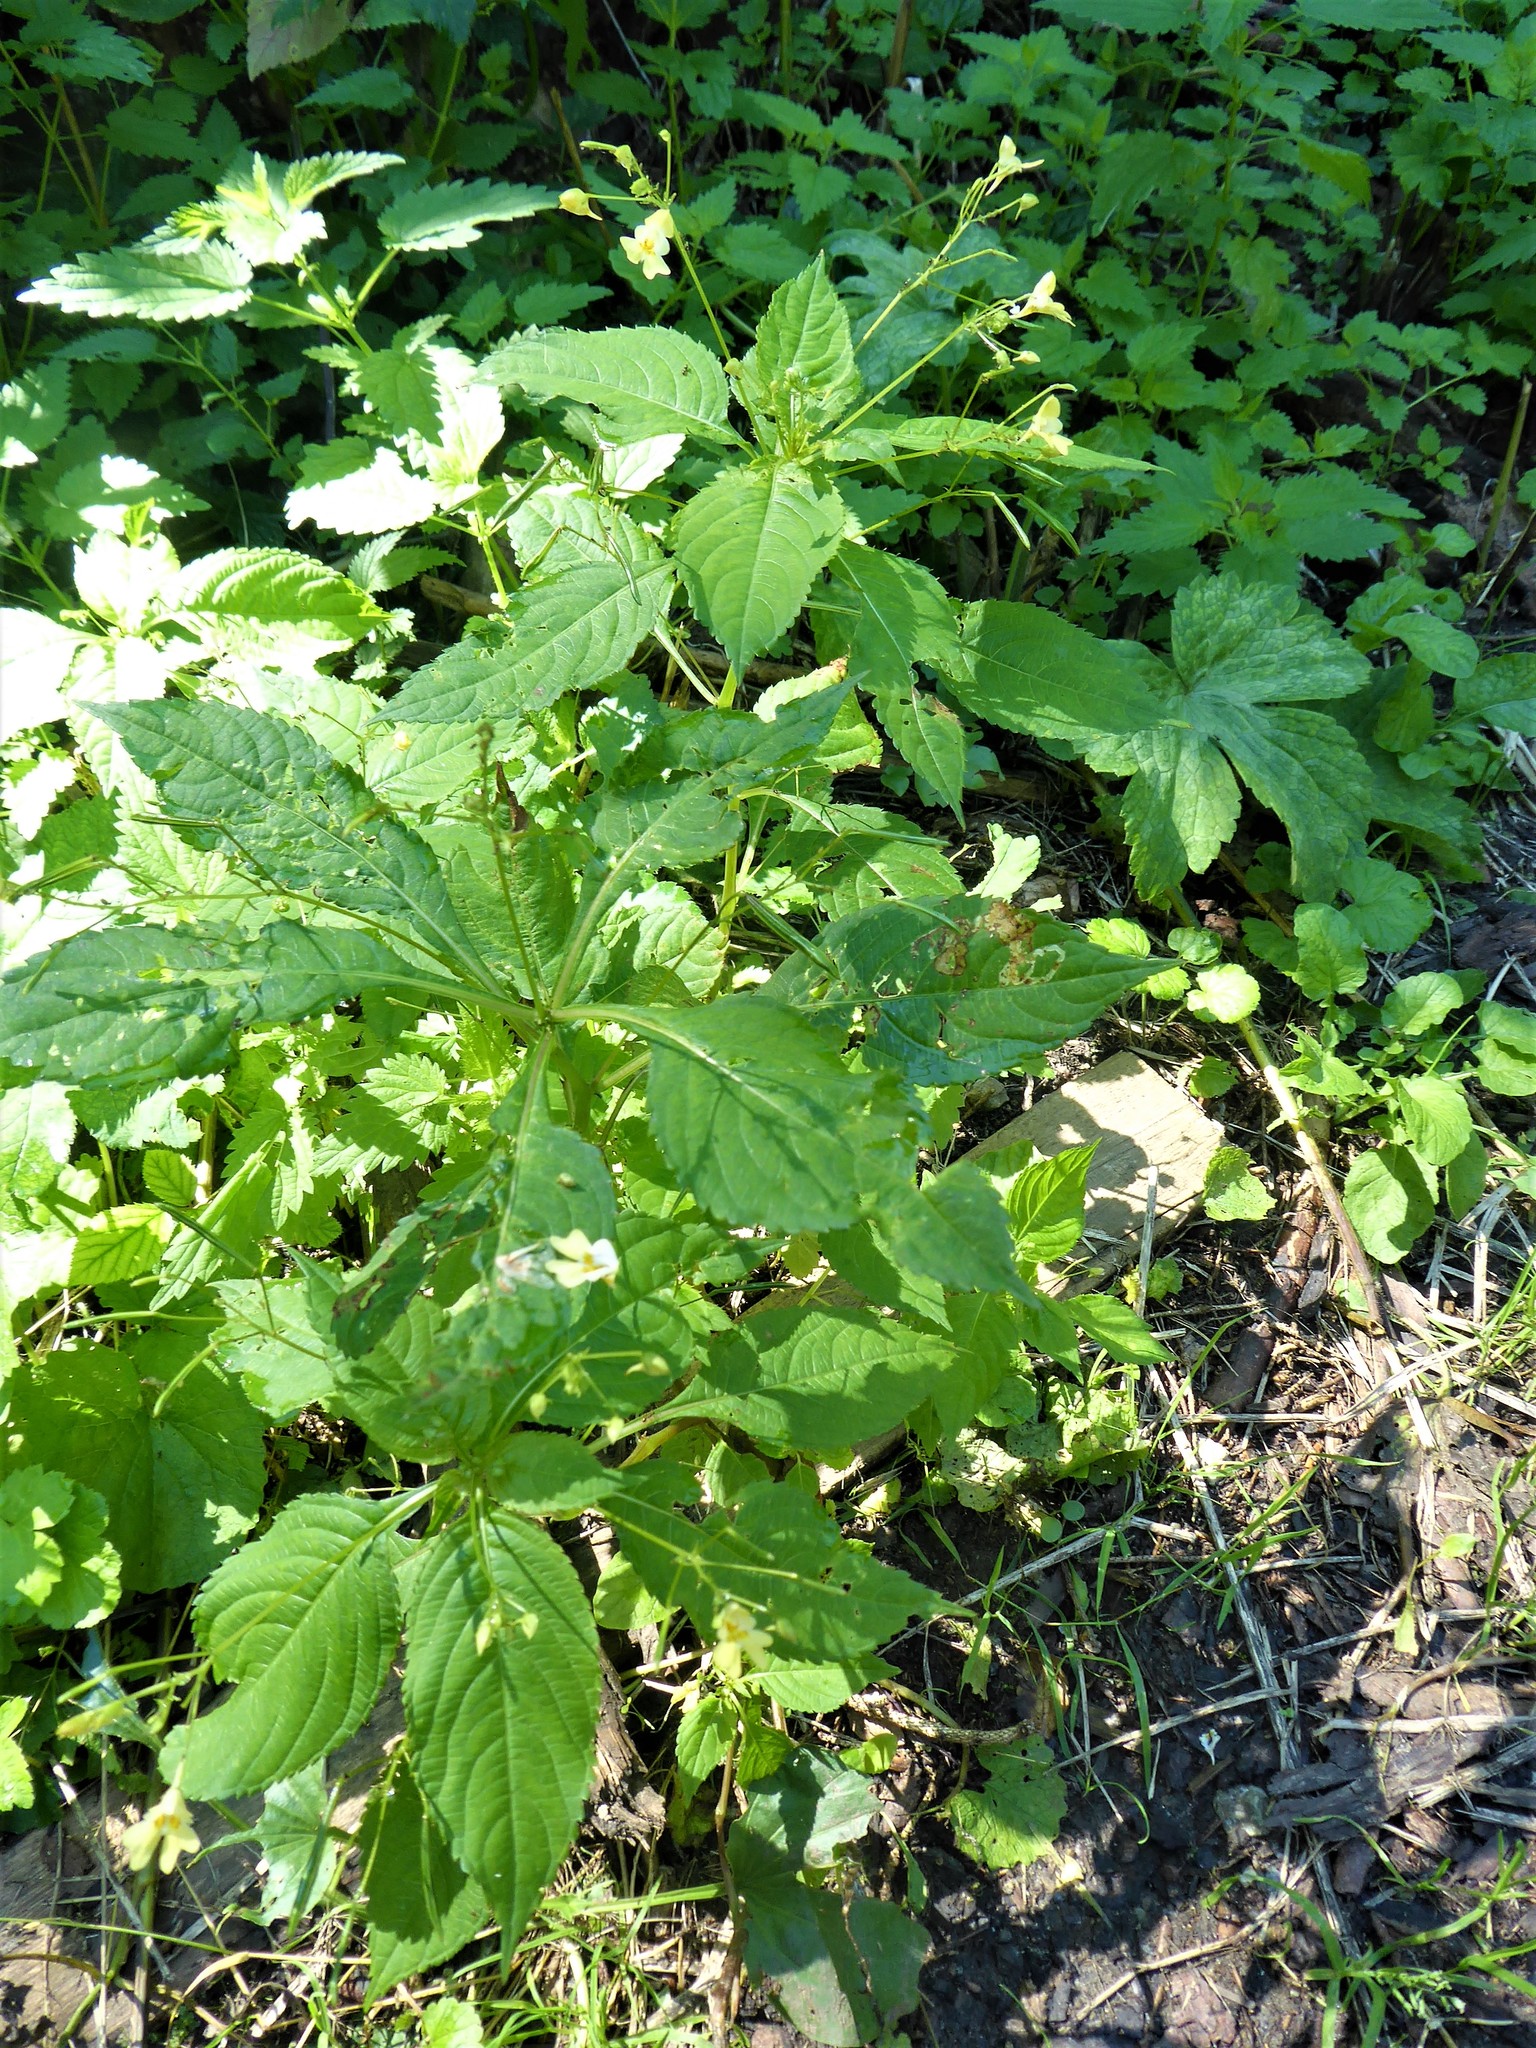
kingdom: Plantae
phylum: Tracheophyta
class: Magnoliopsida
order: Ericales
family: Balsaminaceae
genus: Impatiens
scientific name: Impatiens parviflora
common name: Small balsam
